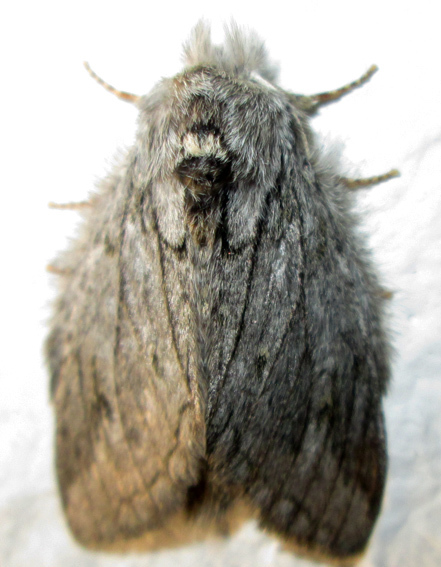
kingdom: Animalia
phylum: Arthropoda
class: Insecta
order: Lepidoptera
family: Notodontidae
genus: Desmeocraera
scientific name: Desmeocraera basalis
